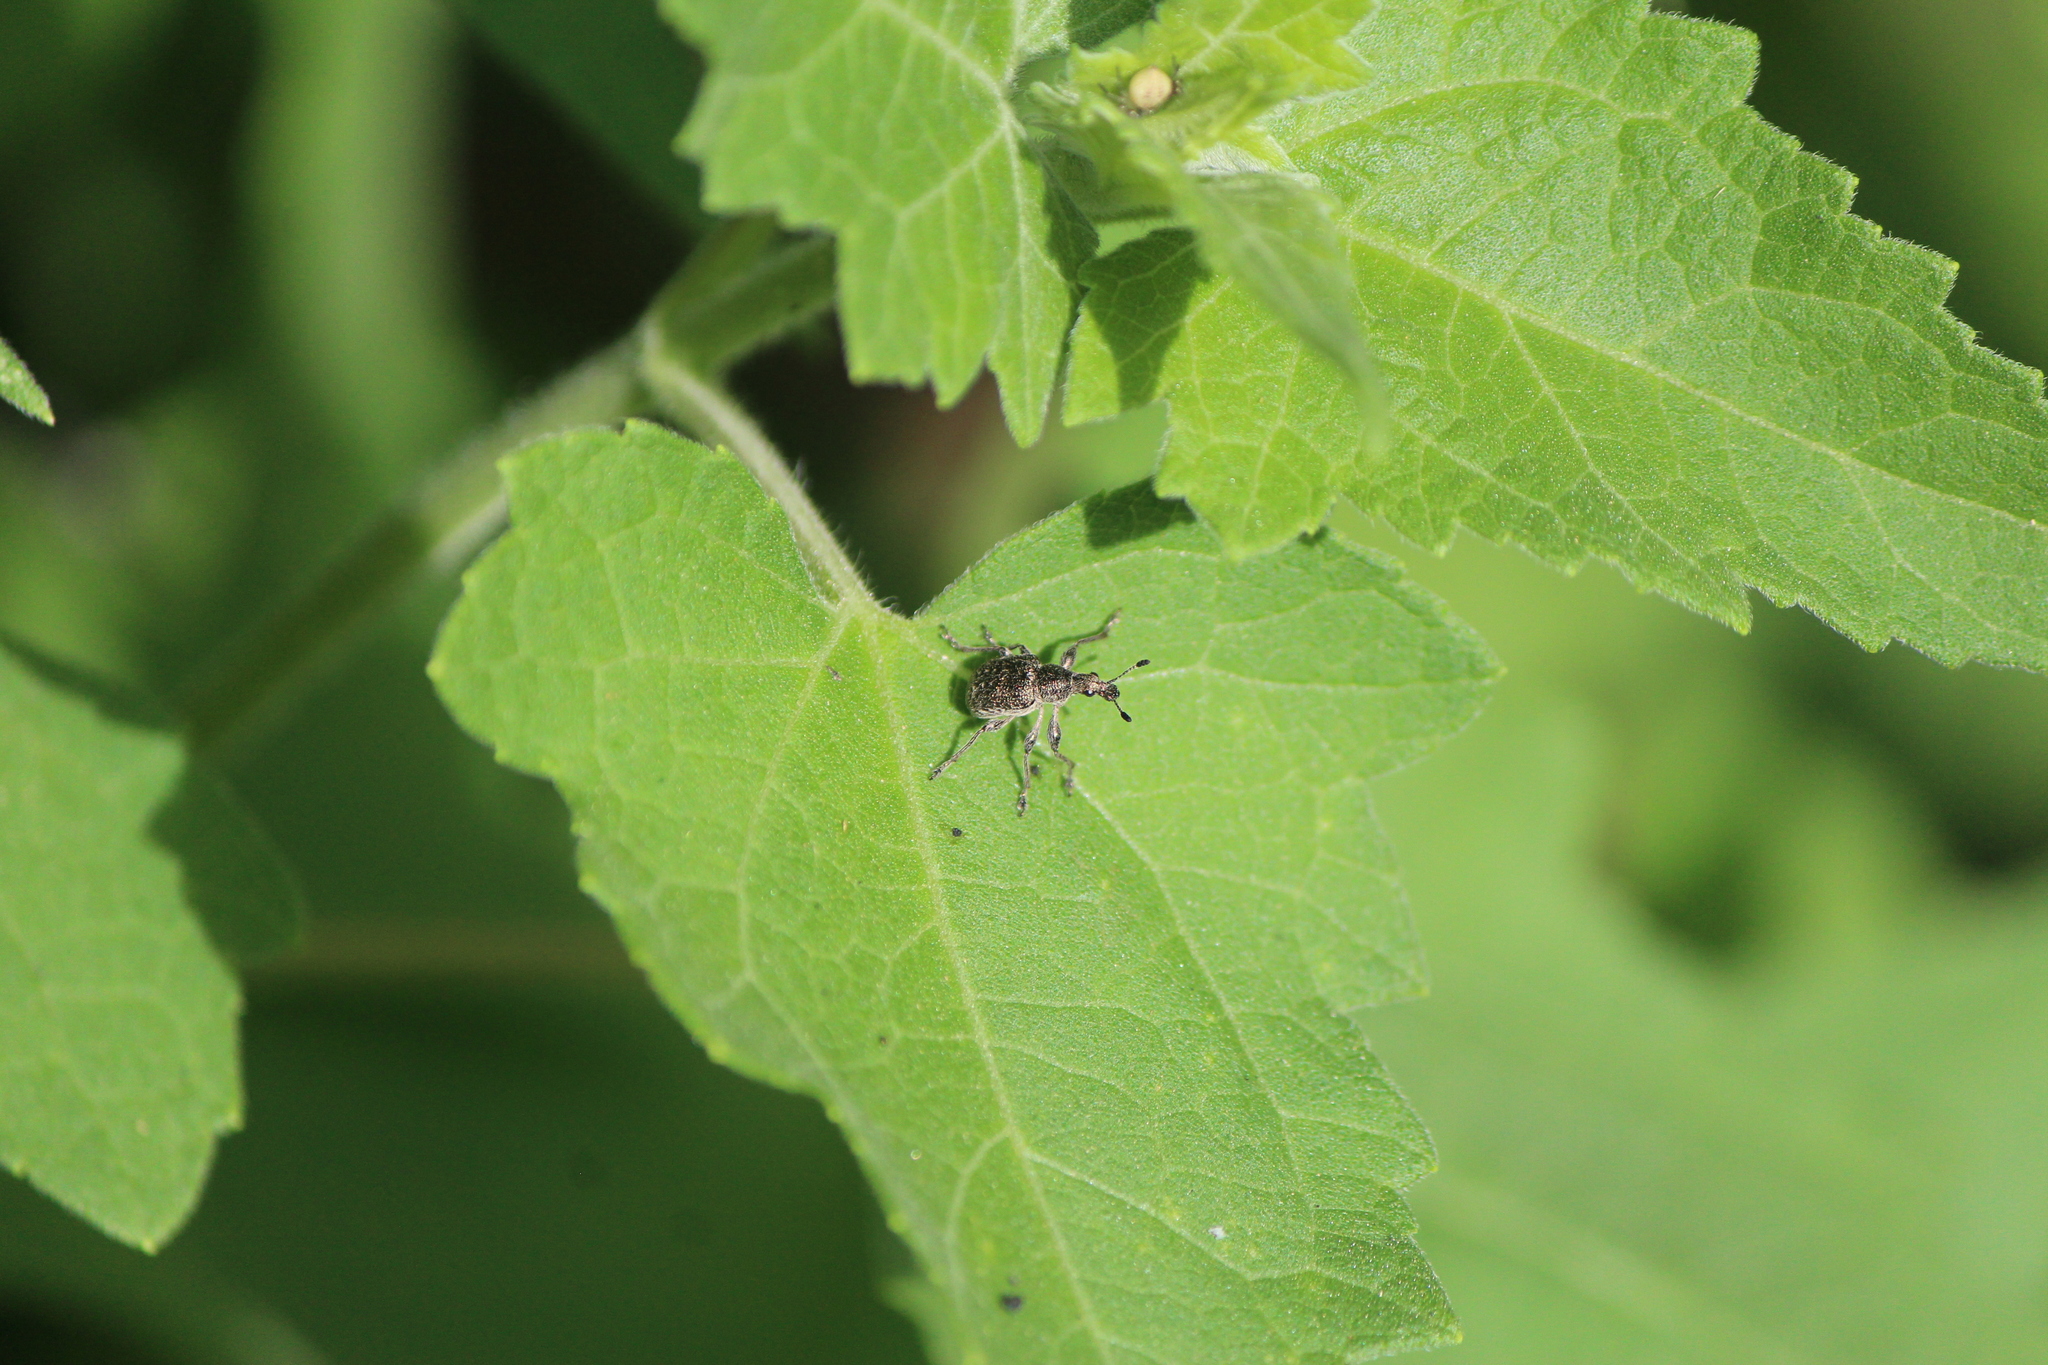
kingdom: Animalia
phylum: Arthropoda
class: Insecta
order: Coleoptera
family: Attelabidae
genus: Pilolabus
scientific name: Pilolabus klugi
